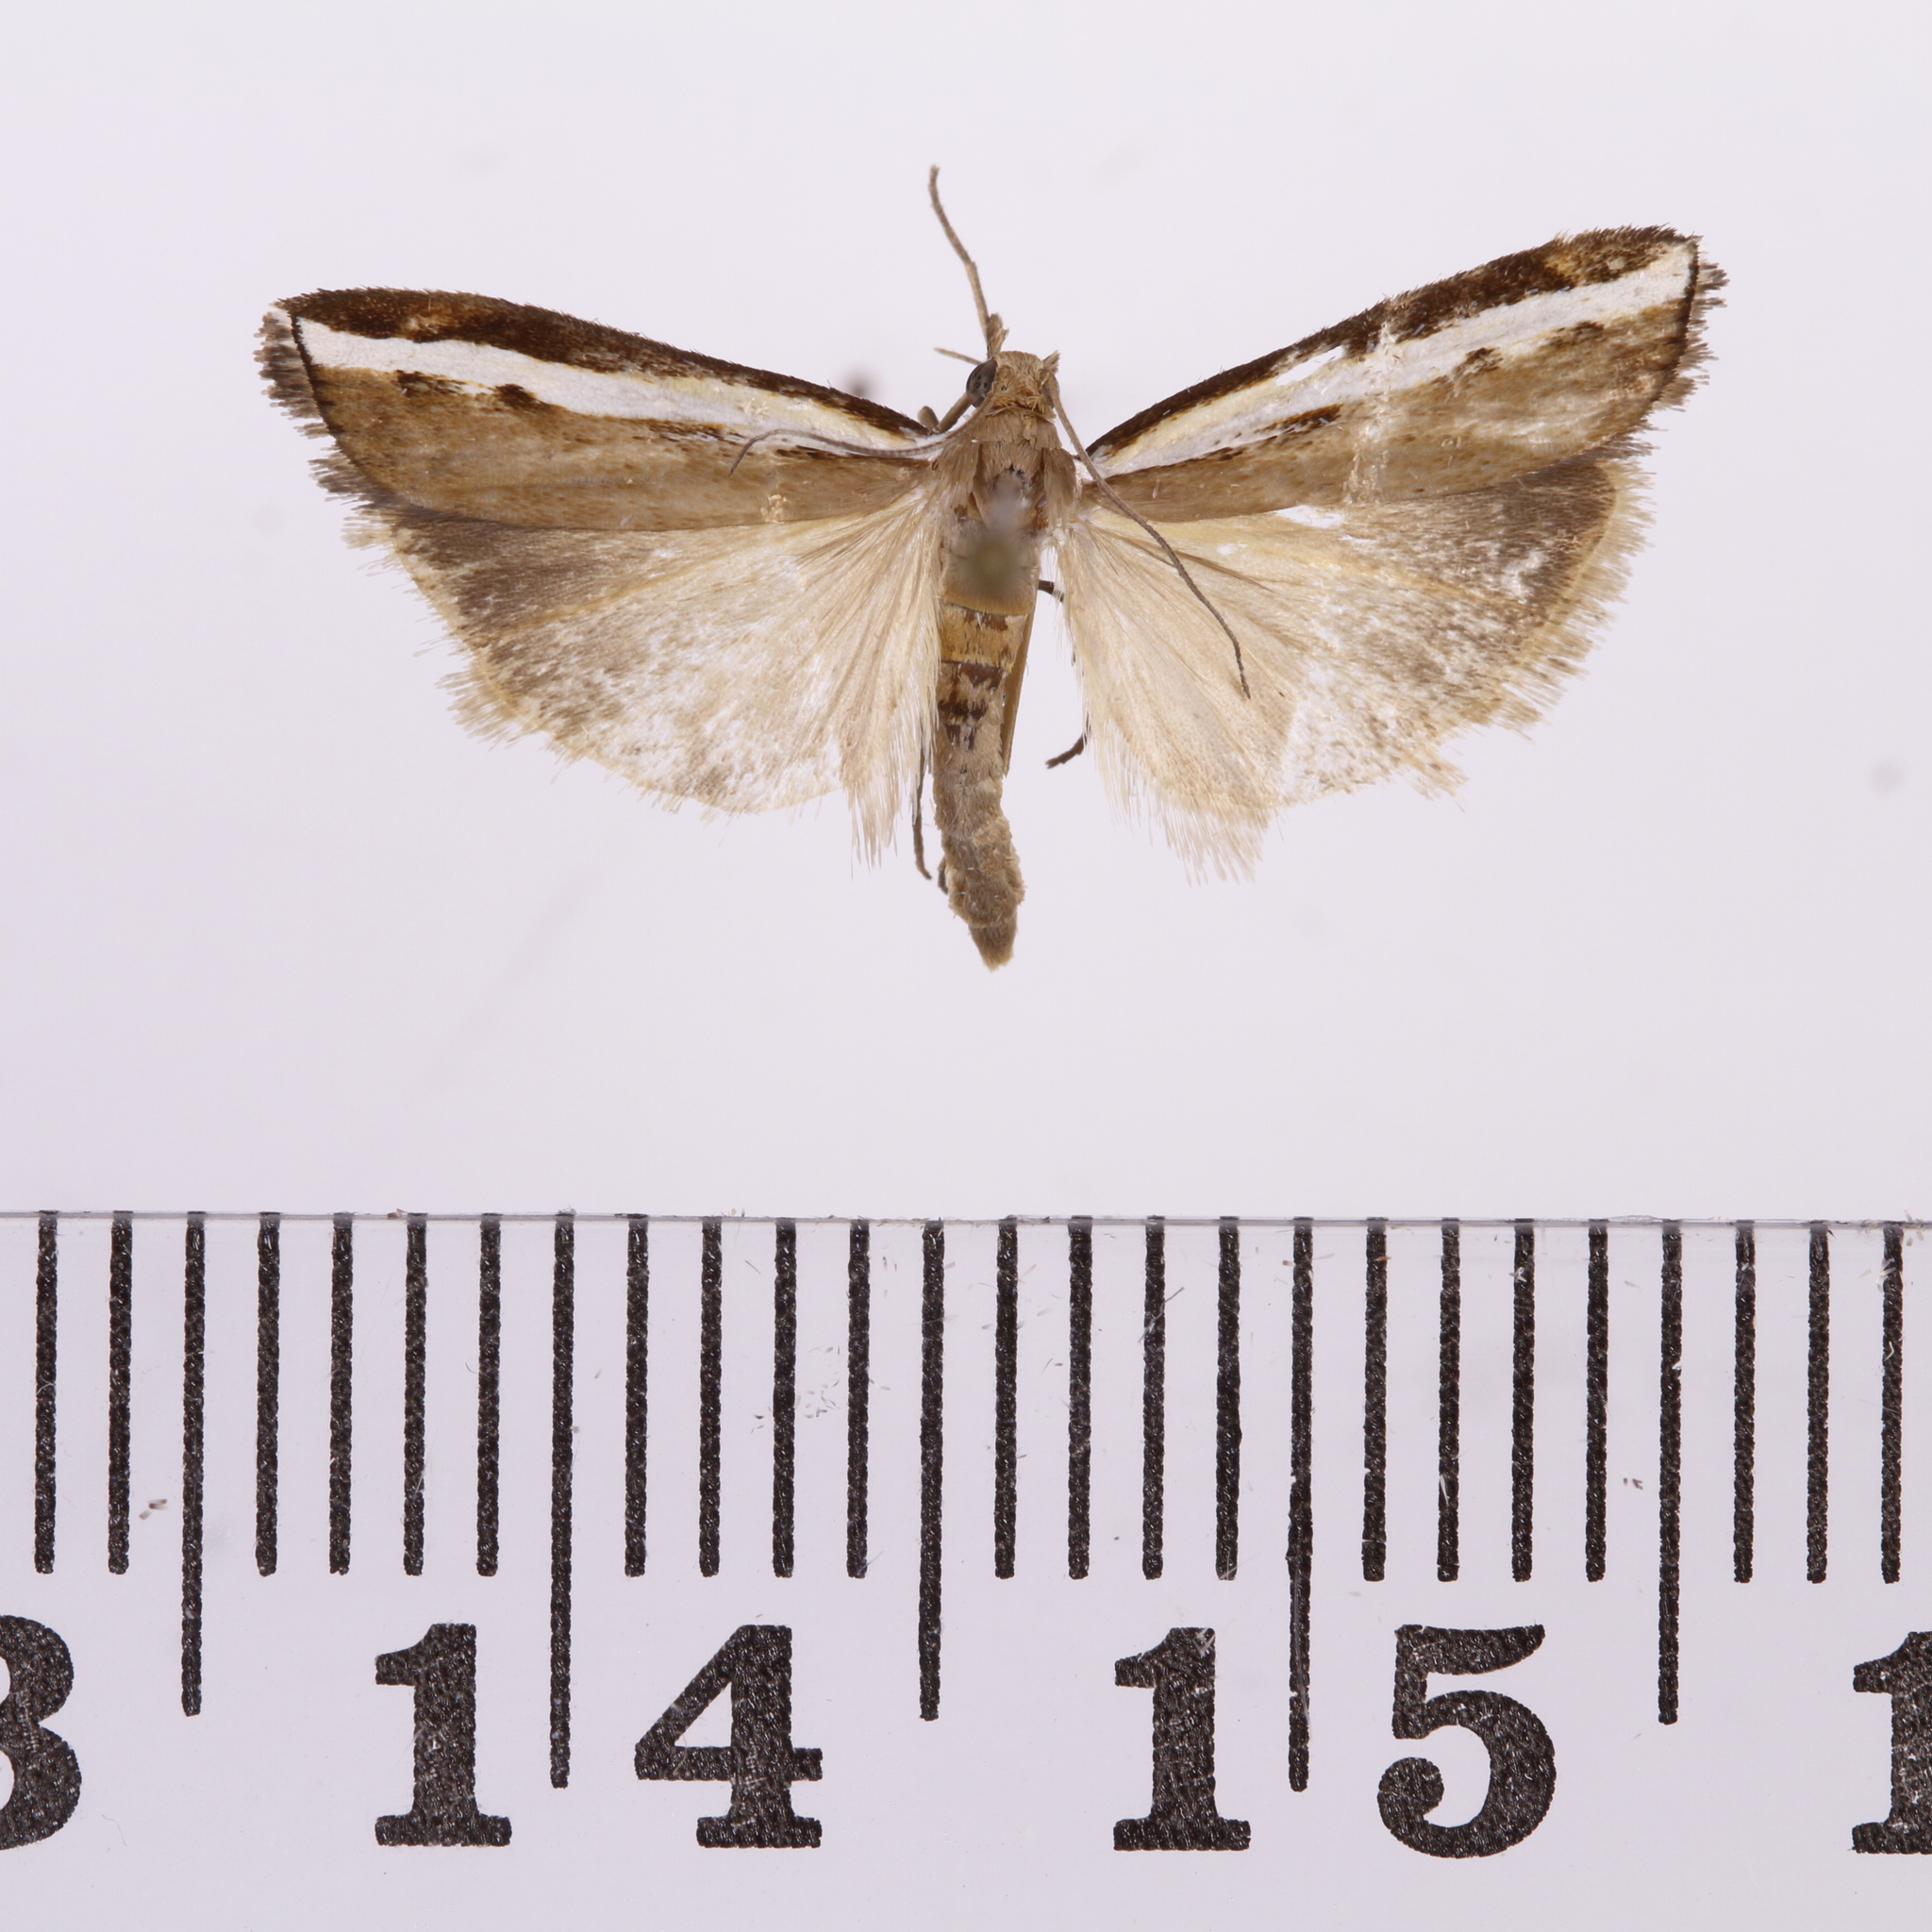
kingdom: Animalia
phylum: Arthropoda
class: Insecta
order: Lepidoptera
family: Crambidae
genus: Orocrambus
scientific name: Orocrambus flexuosellus
